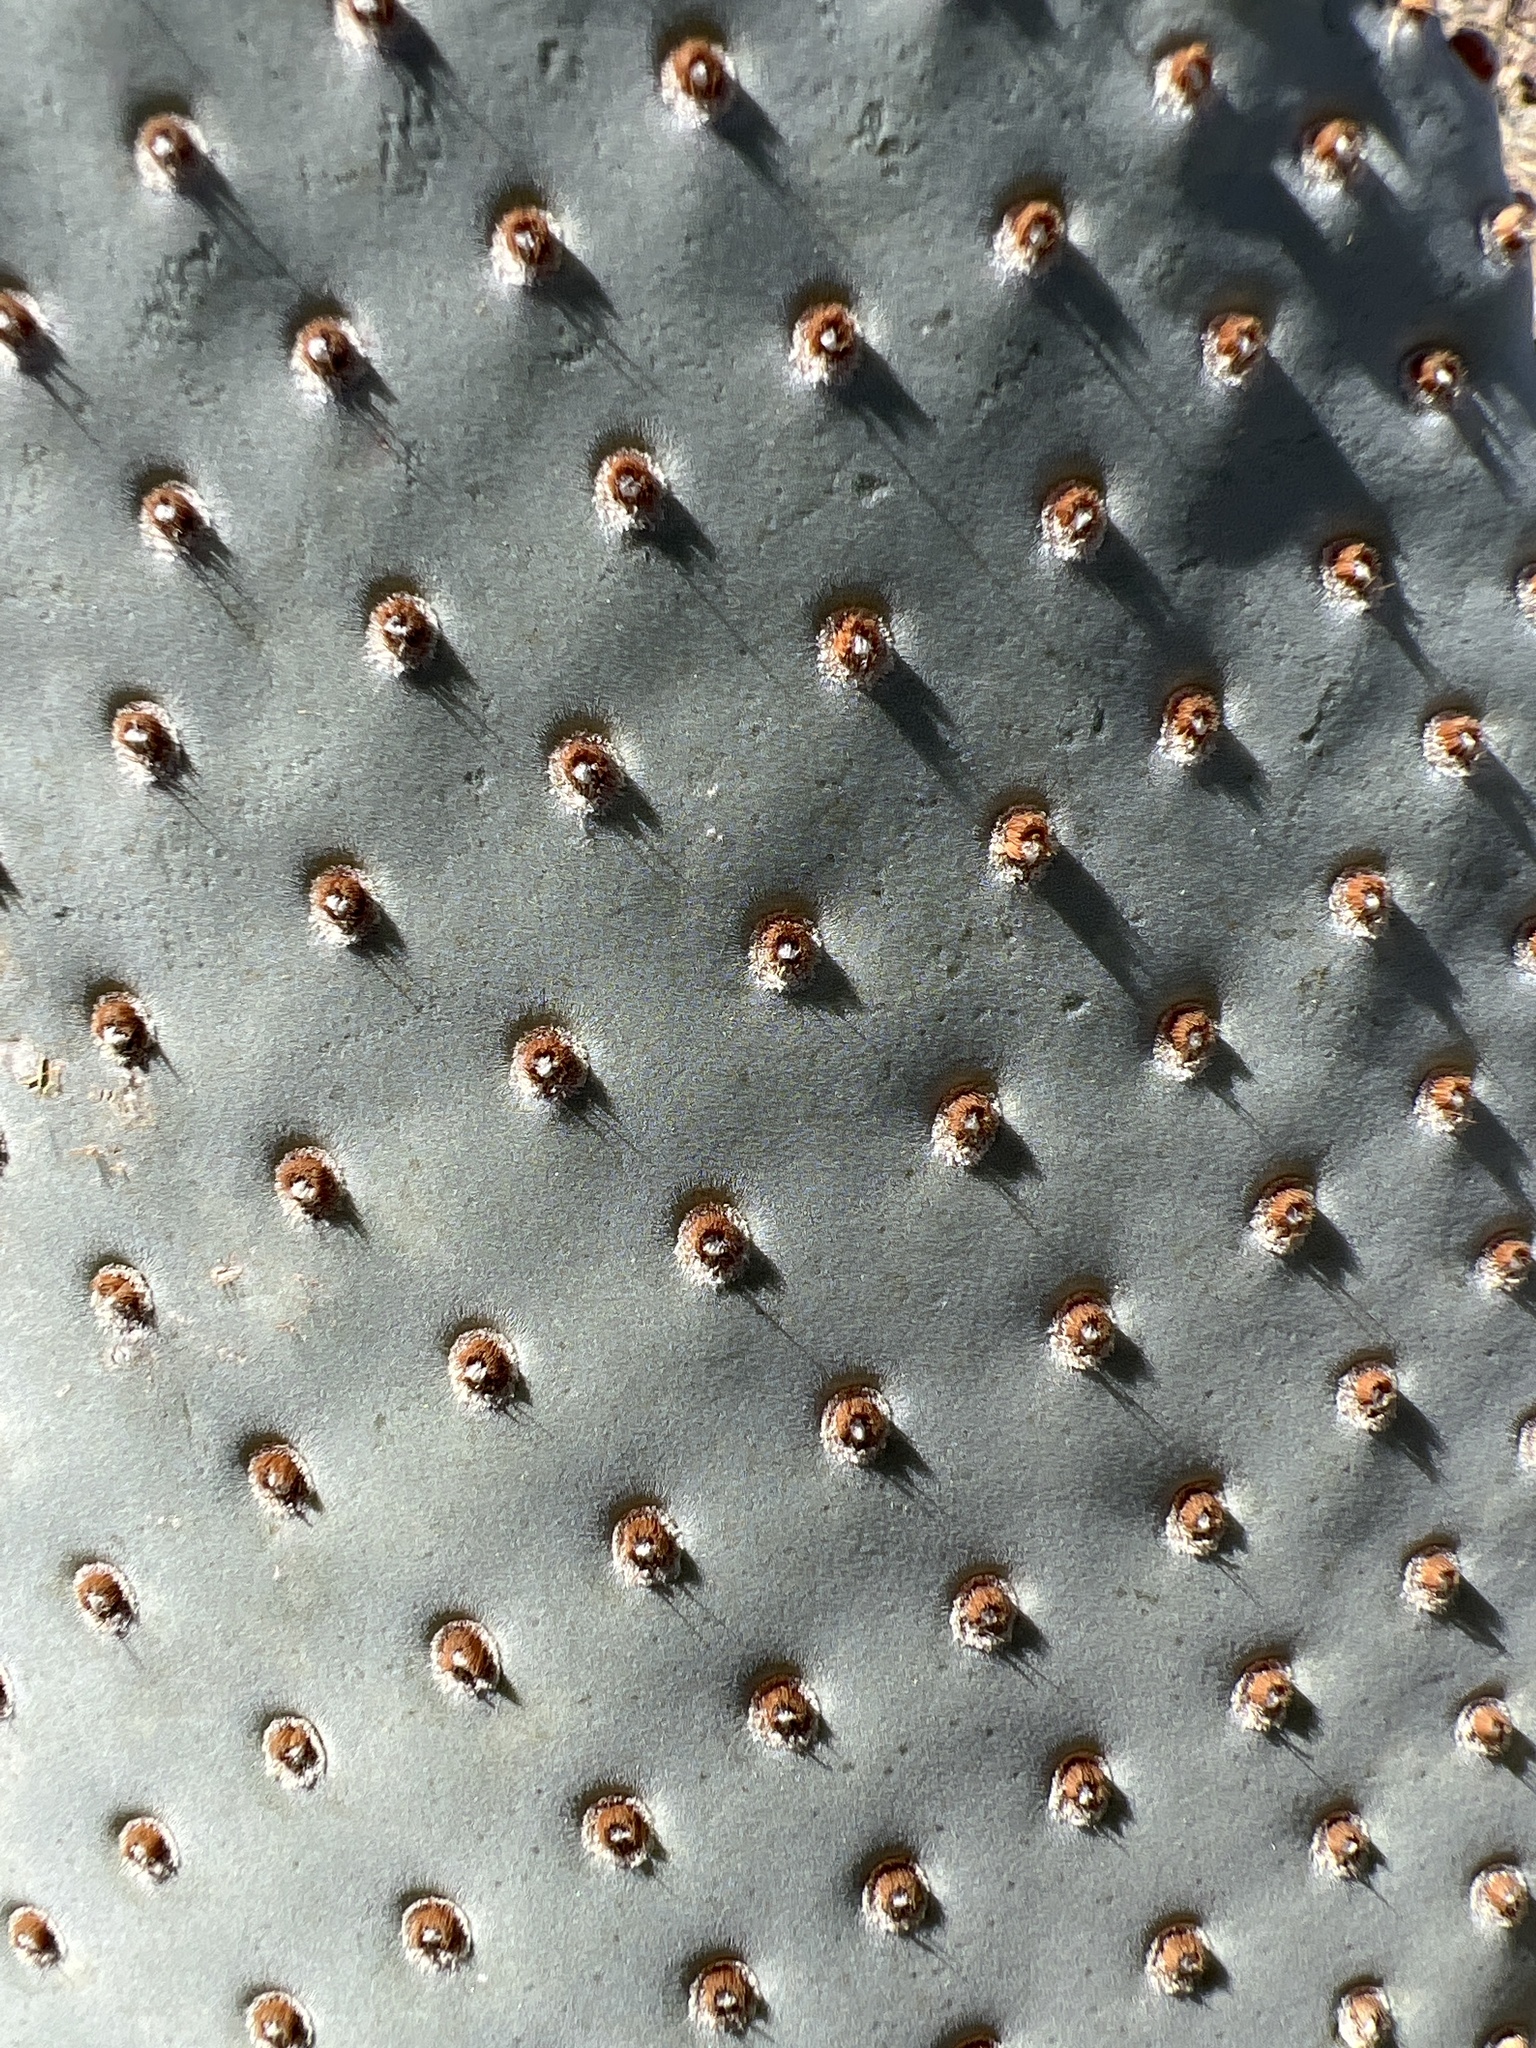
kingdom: Plantae
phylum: Tracheophyta
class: Magnoliopsida
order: Caryophyllales
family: Cactaceae
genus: Opuntia
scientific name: Opuntia basilaris
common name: Beavertail prickly-pear
